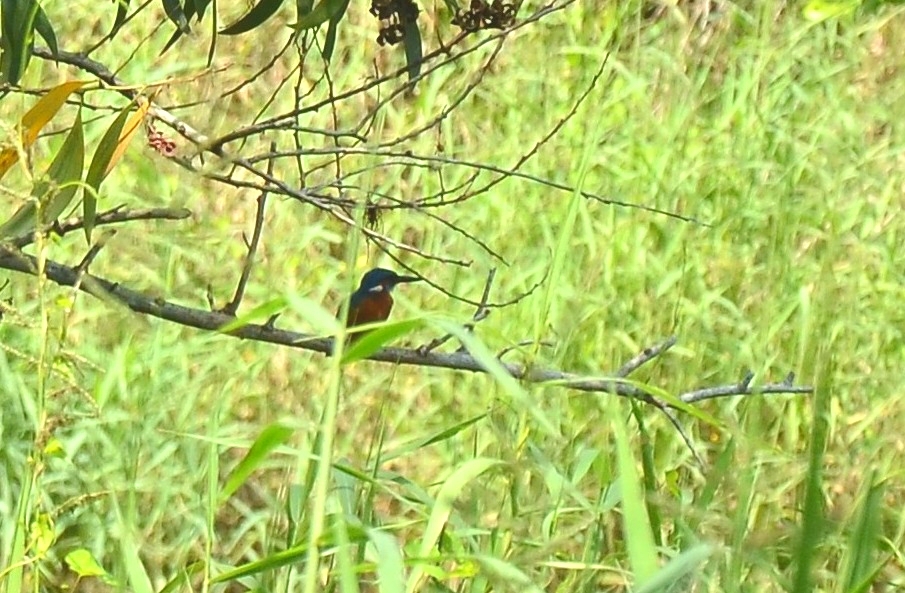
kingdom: Animalia
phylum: Chordata
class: Aves
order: Coraciiformes
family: Alcedinidae
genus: Alcedo
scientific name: Alcedo atthis
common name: Common kingfisher
